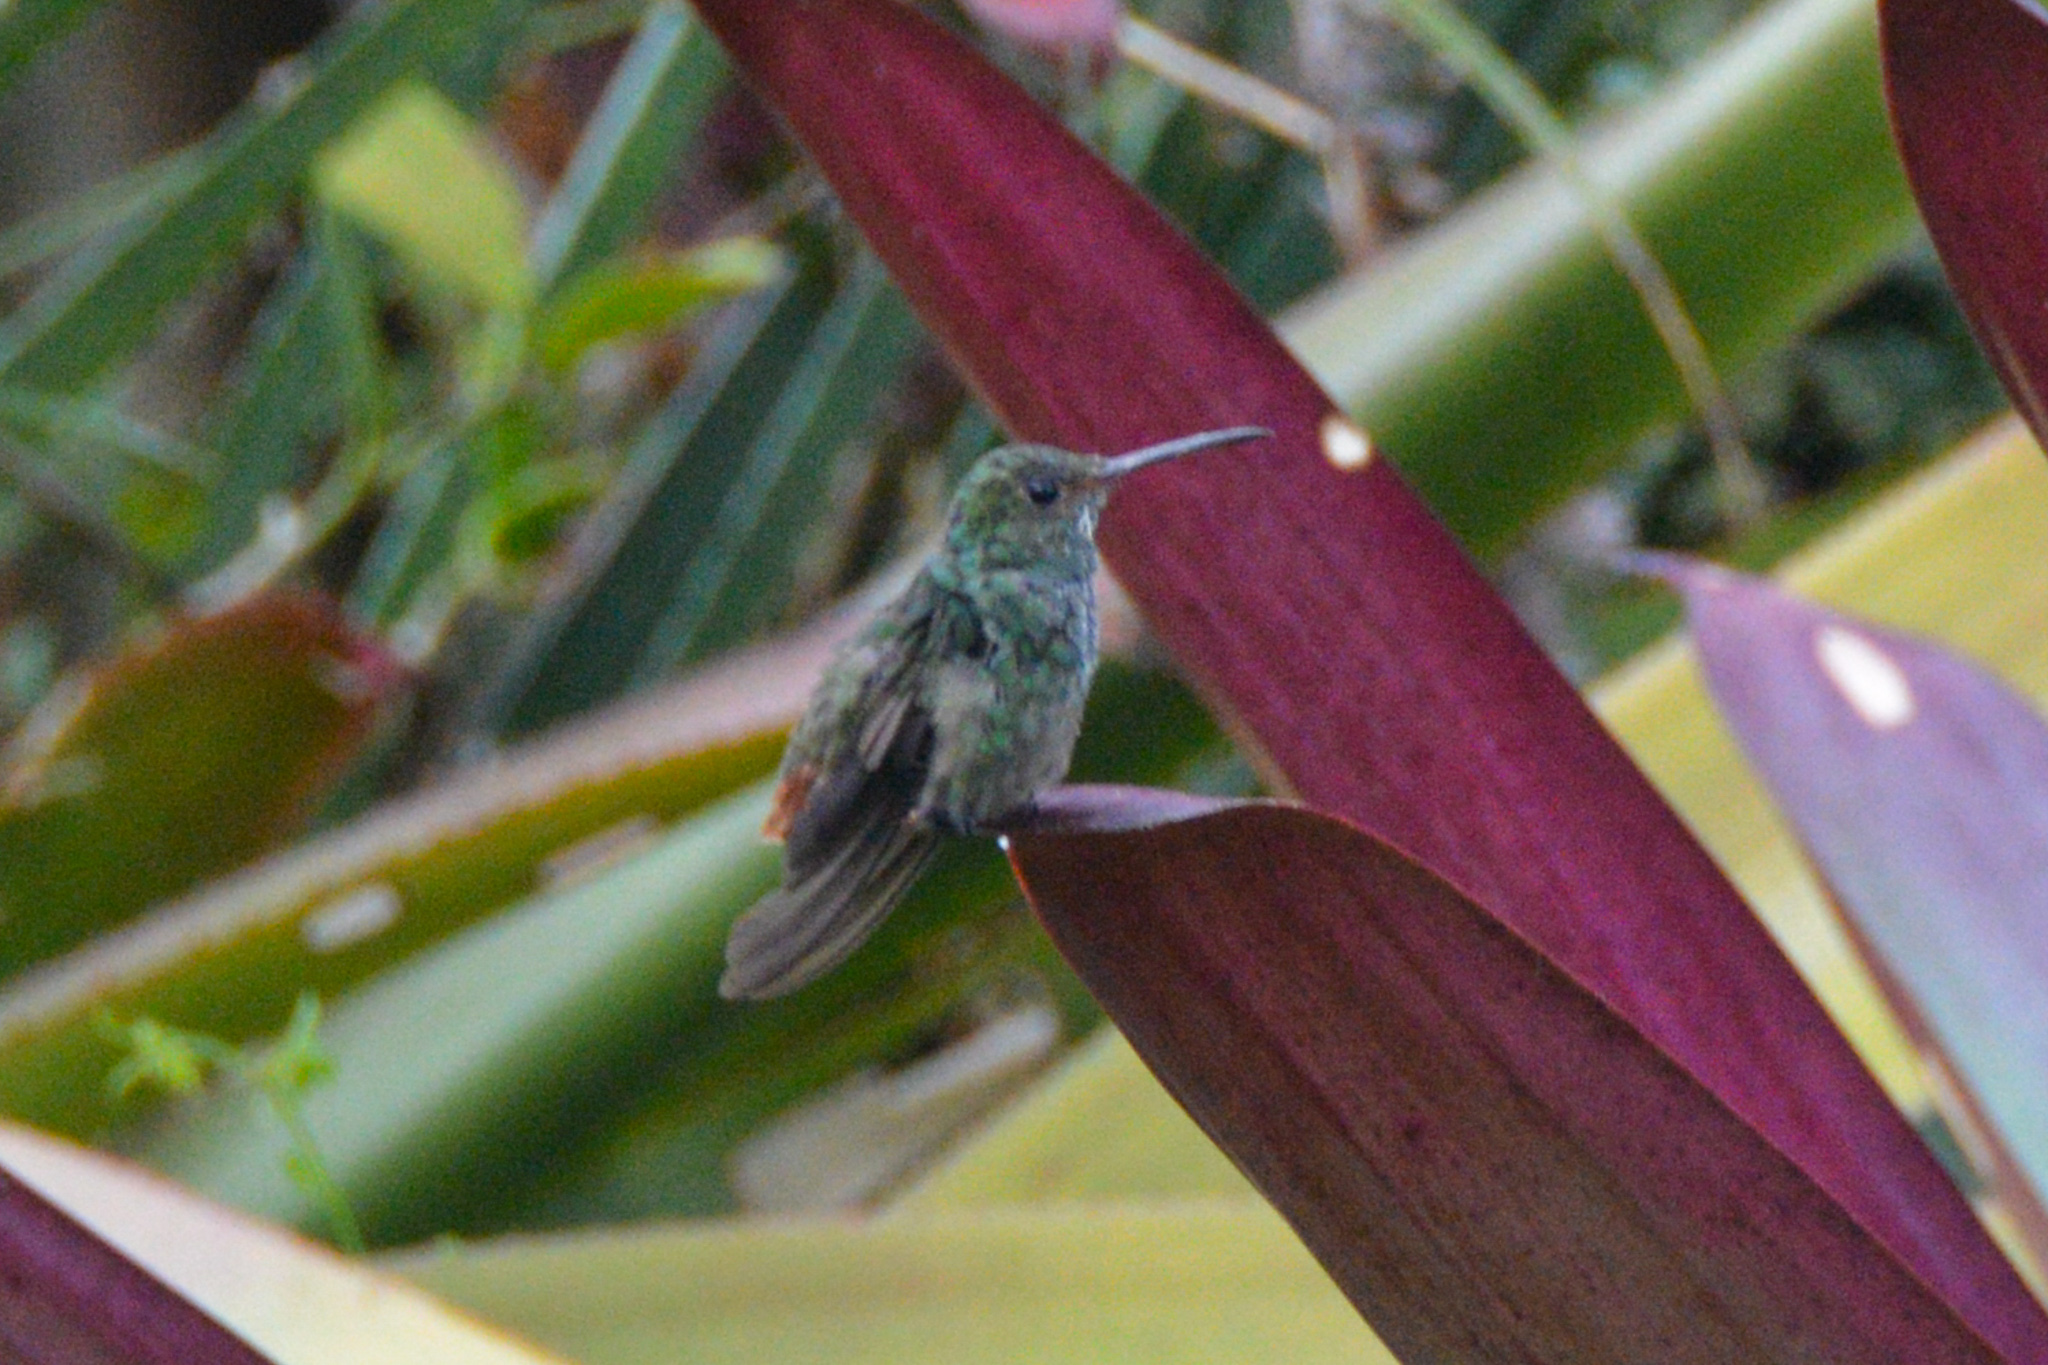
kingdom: Animalia
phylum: Chordata
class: Aves
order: Apodiformes
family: Trochilidae
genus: Amazilia
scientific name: Amazilia tzacatl
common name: Rufous-tailed hummingbird
